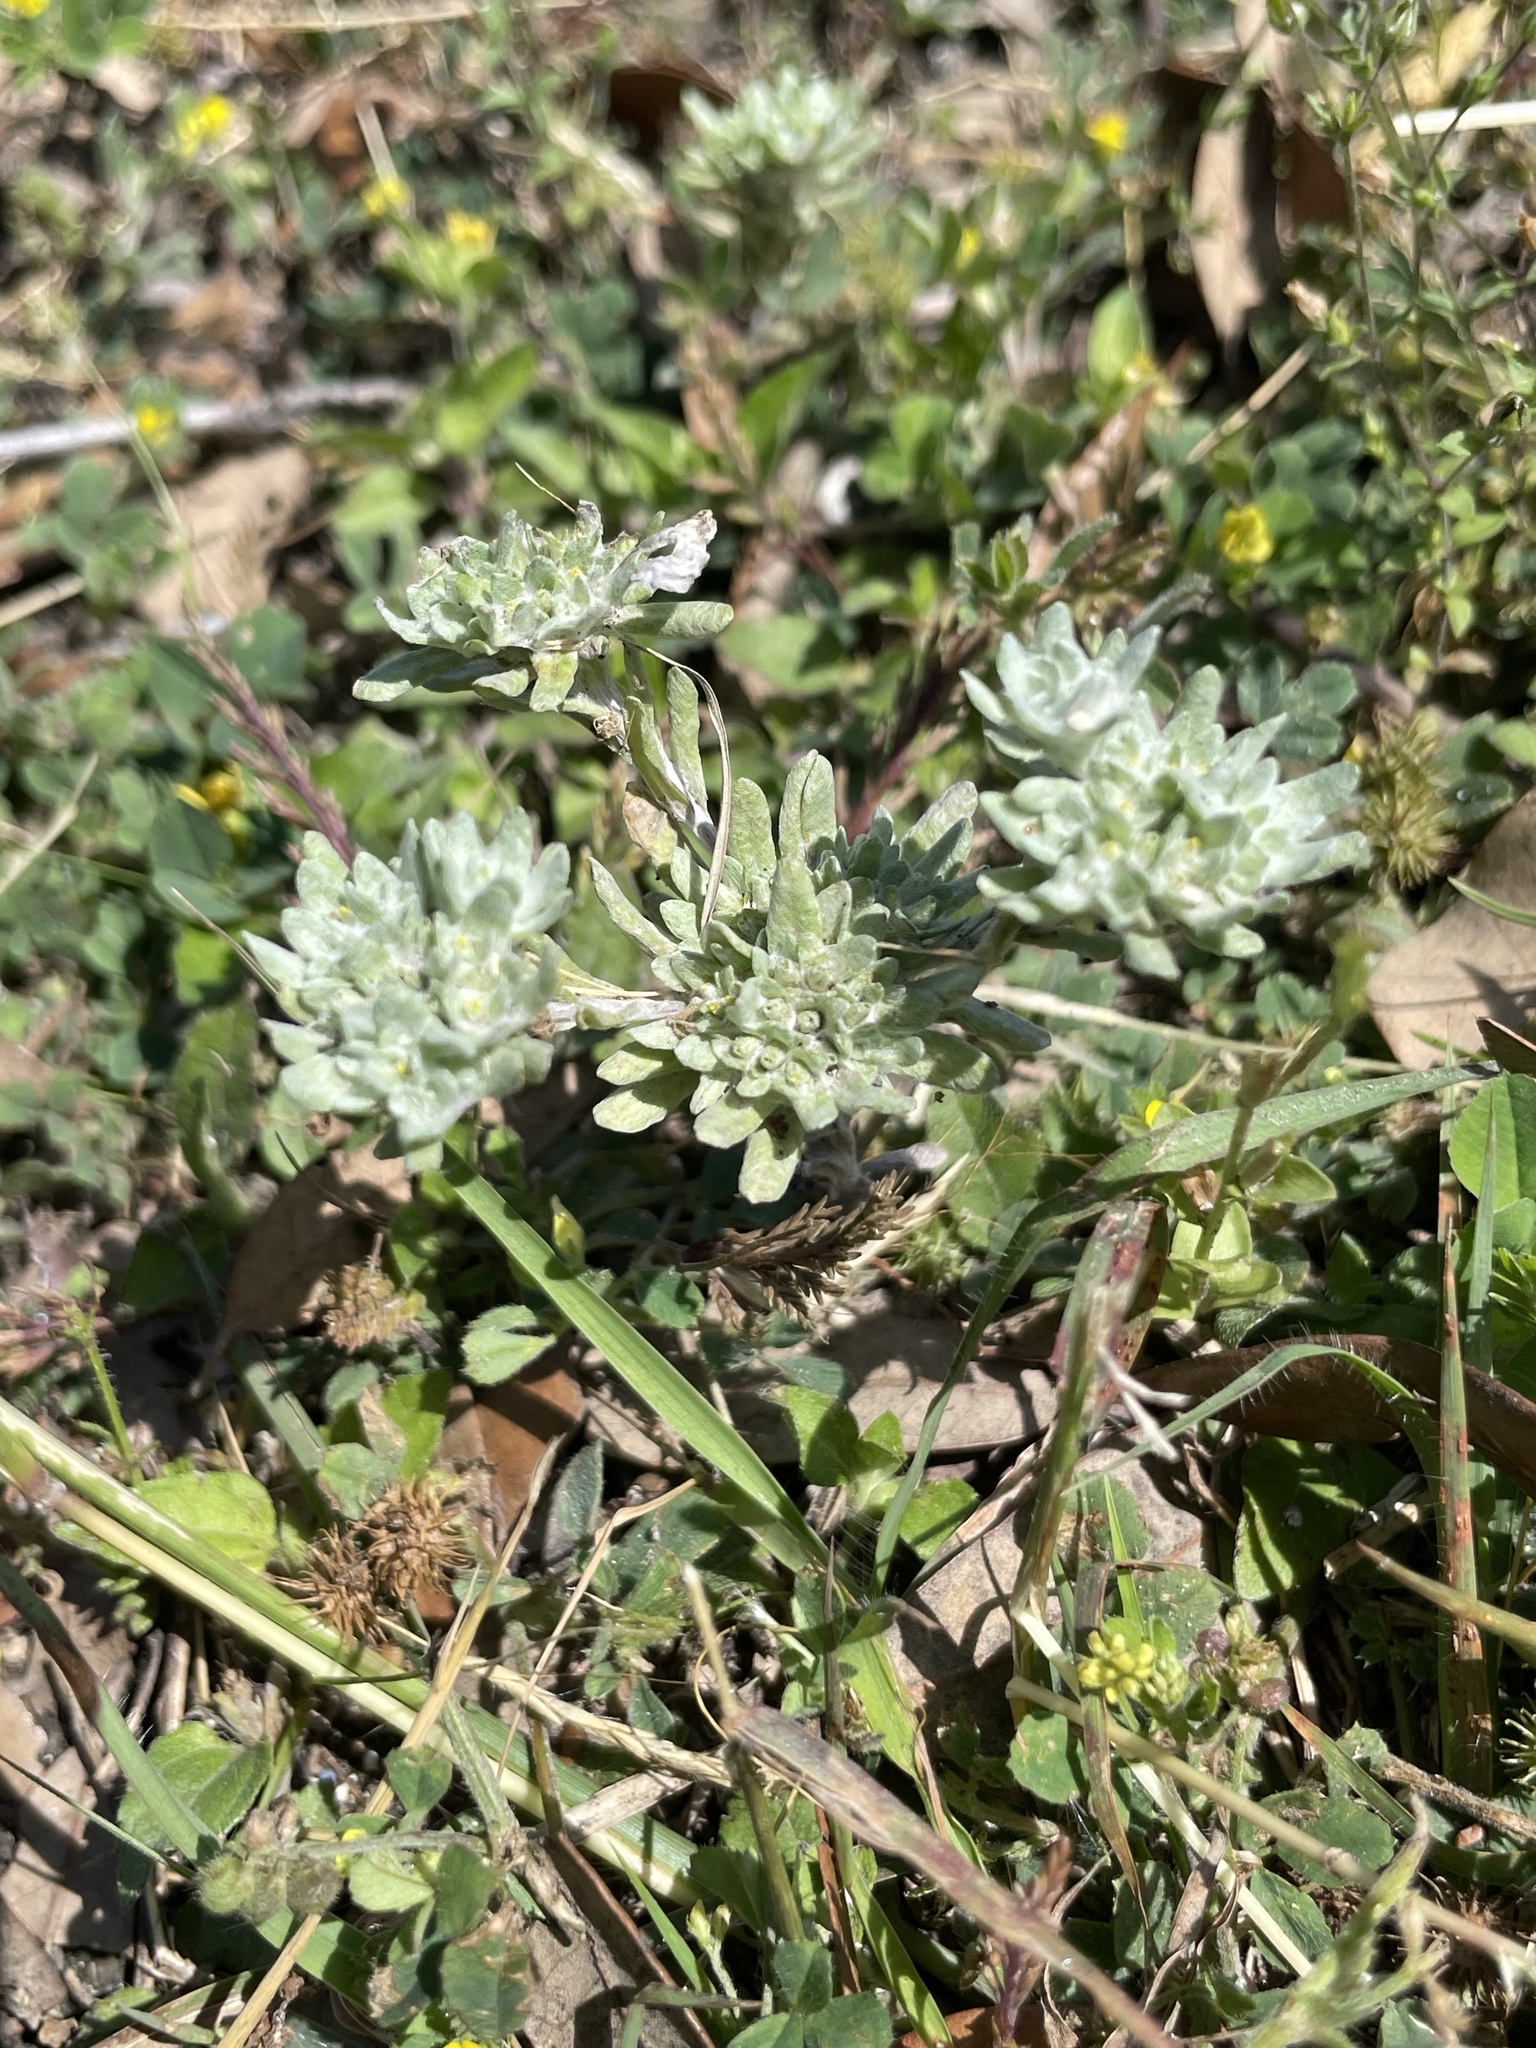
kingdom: Plantae
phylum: Tracheophyta
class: Magnoliopsida
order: Asterales
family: Asteraceae
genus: Diaperia
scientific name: Diaperia prolifera
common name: Big-head rabbit-tobacco
